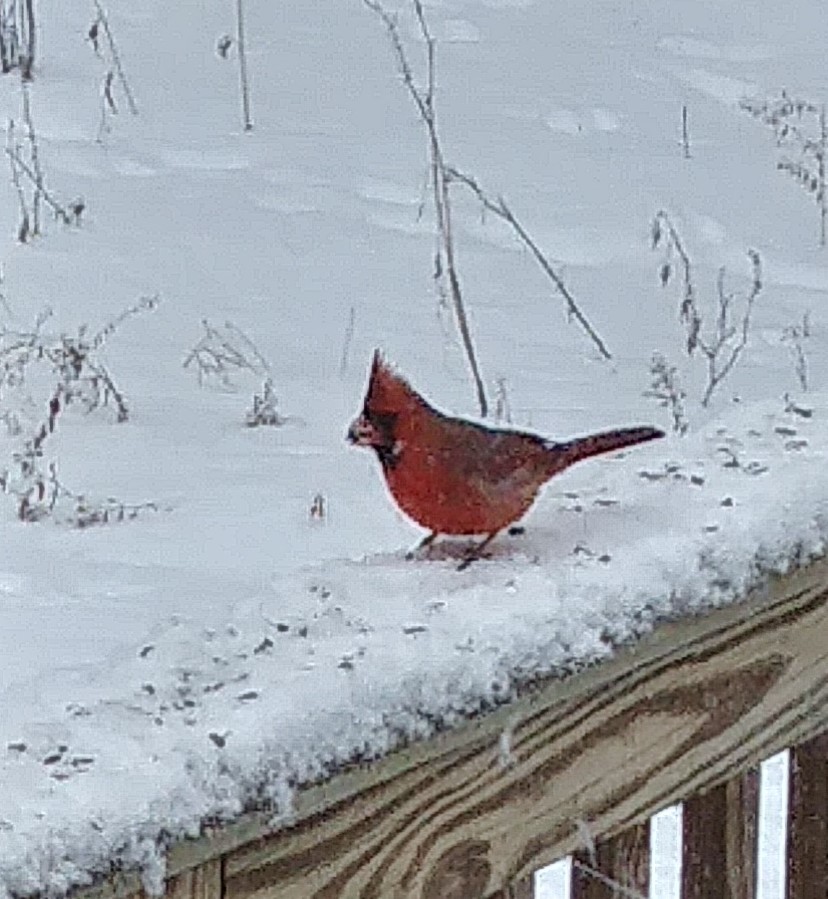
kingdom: Animalia
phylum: Chordata
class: Aves
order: Passeriformes
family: Cardinalidae
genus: Cardinalis
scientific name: Cardinalis cardinalis
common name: Northern cardinal
